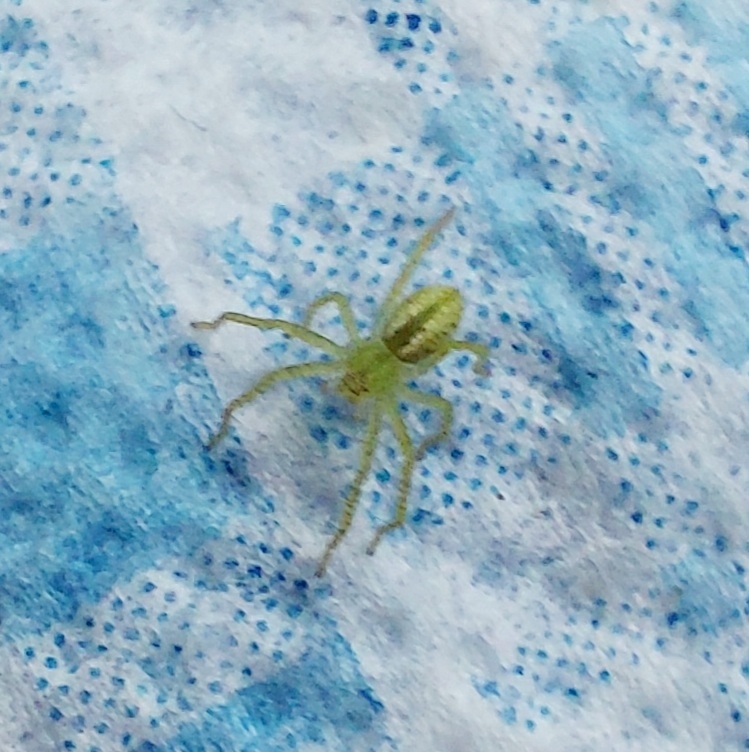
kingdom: Animalia
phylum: Arthropoda
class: Arachnida
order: Araneae
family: Sparassidae
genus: Micrommata
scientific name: Micrommata virescens
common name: Green spider
